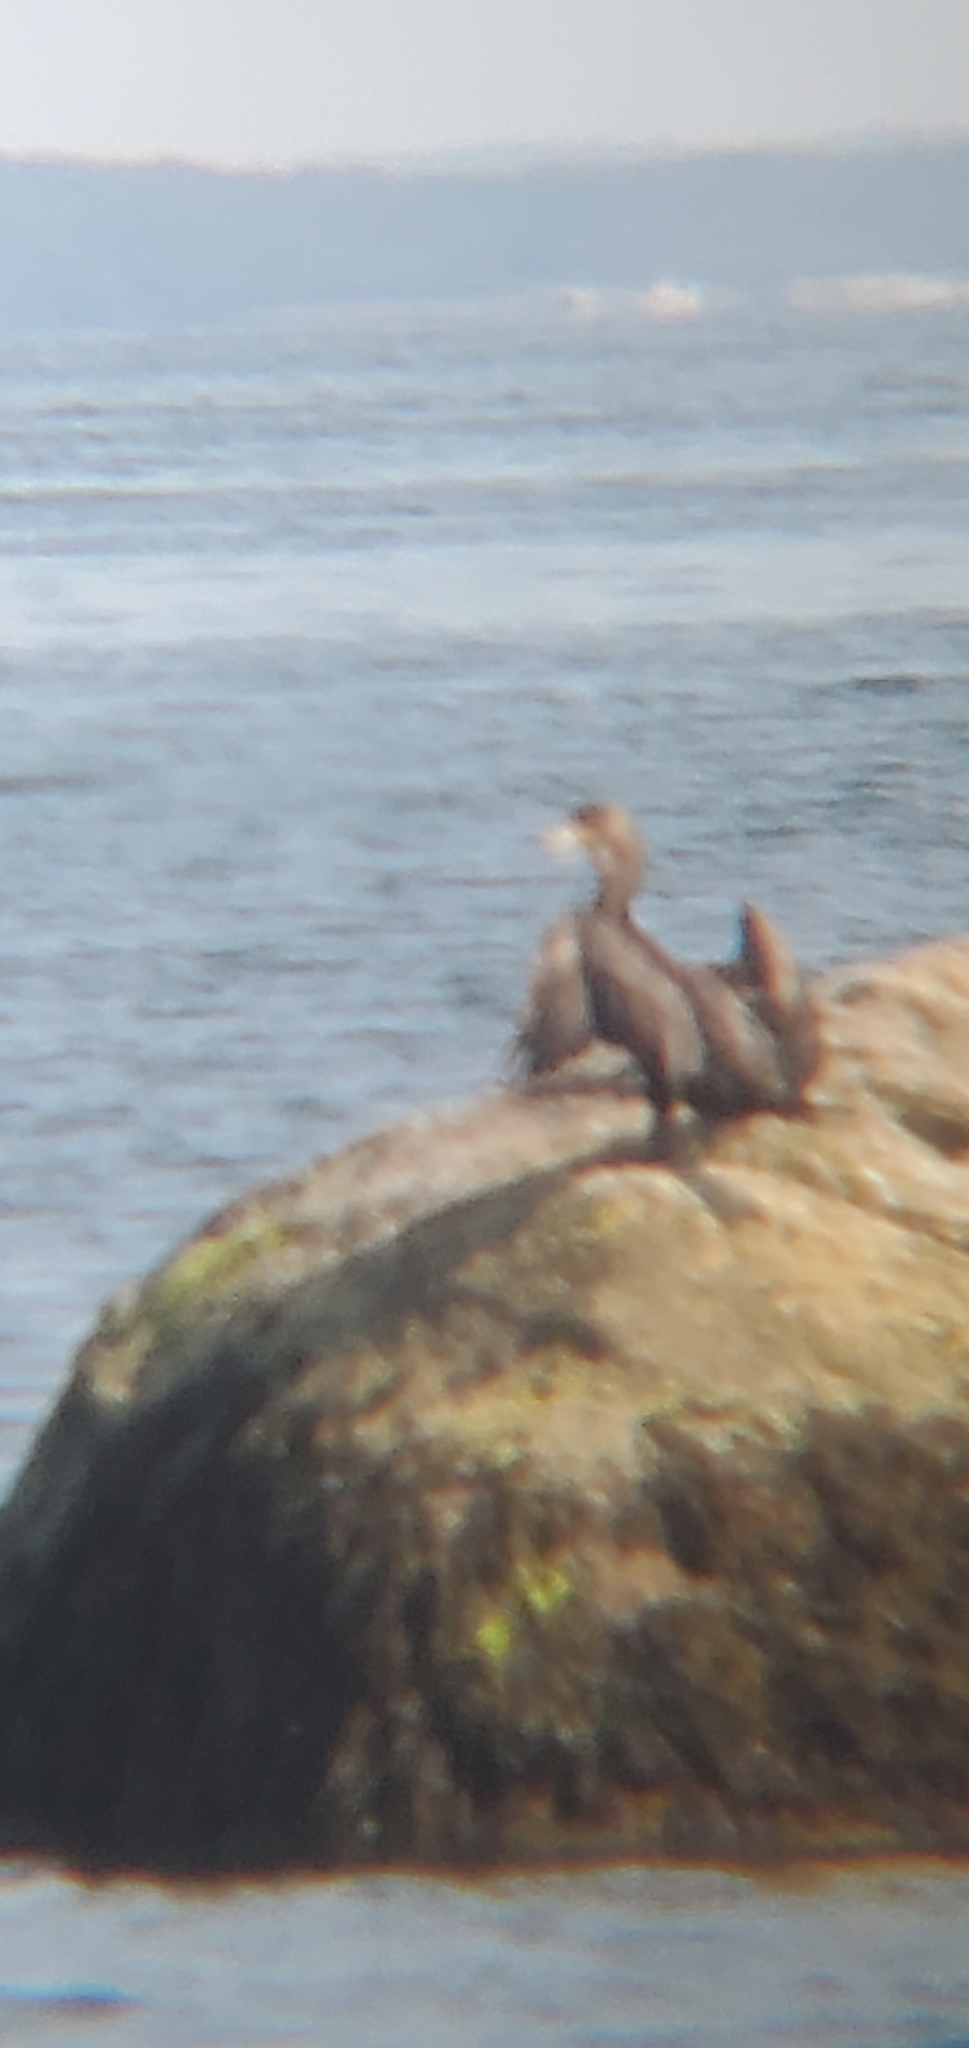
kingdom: Animalia
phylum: Chordata
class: Aves
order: Suliformes
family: Phalacrocoracidae
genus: Phalacrocorax
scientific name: Phalacrocorax auritus
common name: Double-crested cormorant
